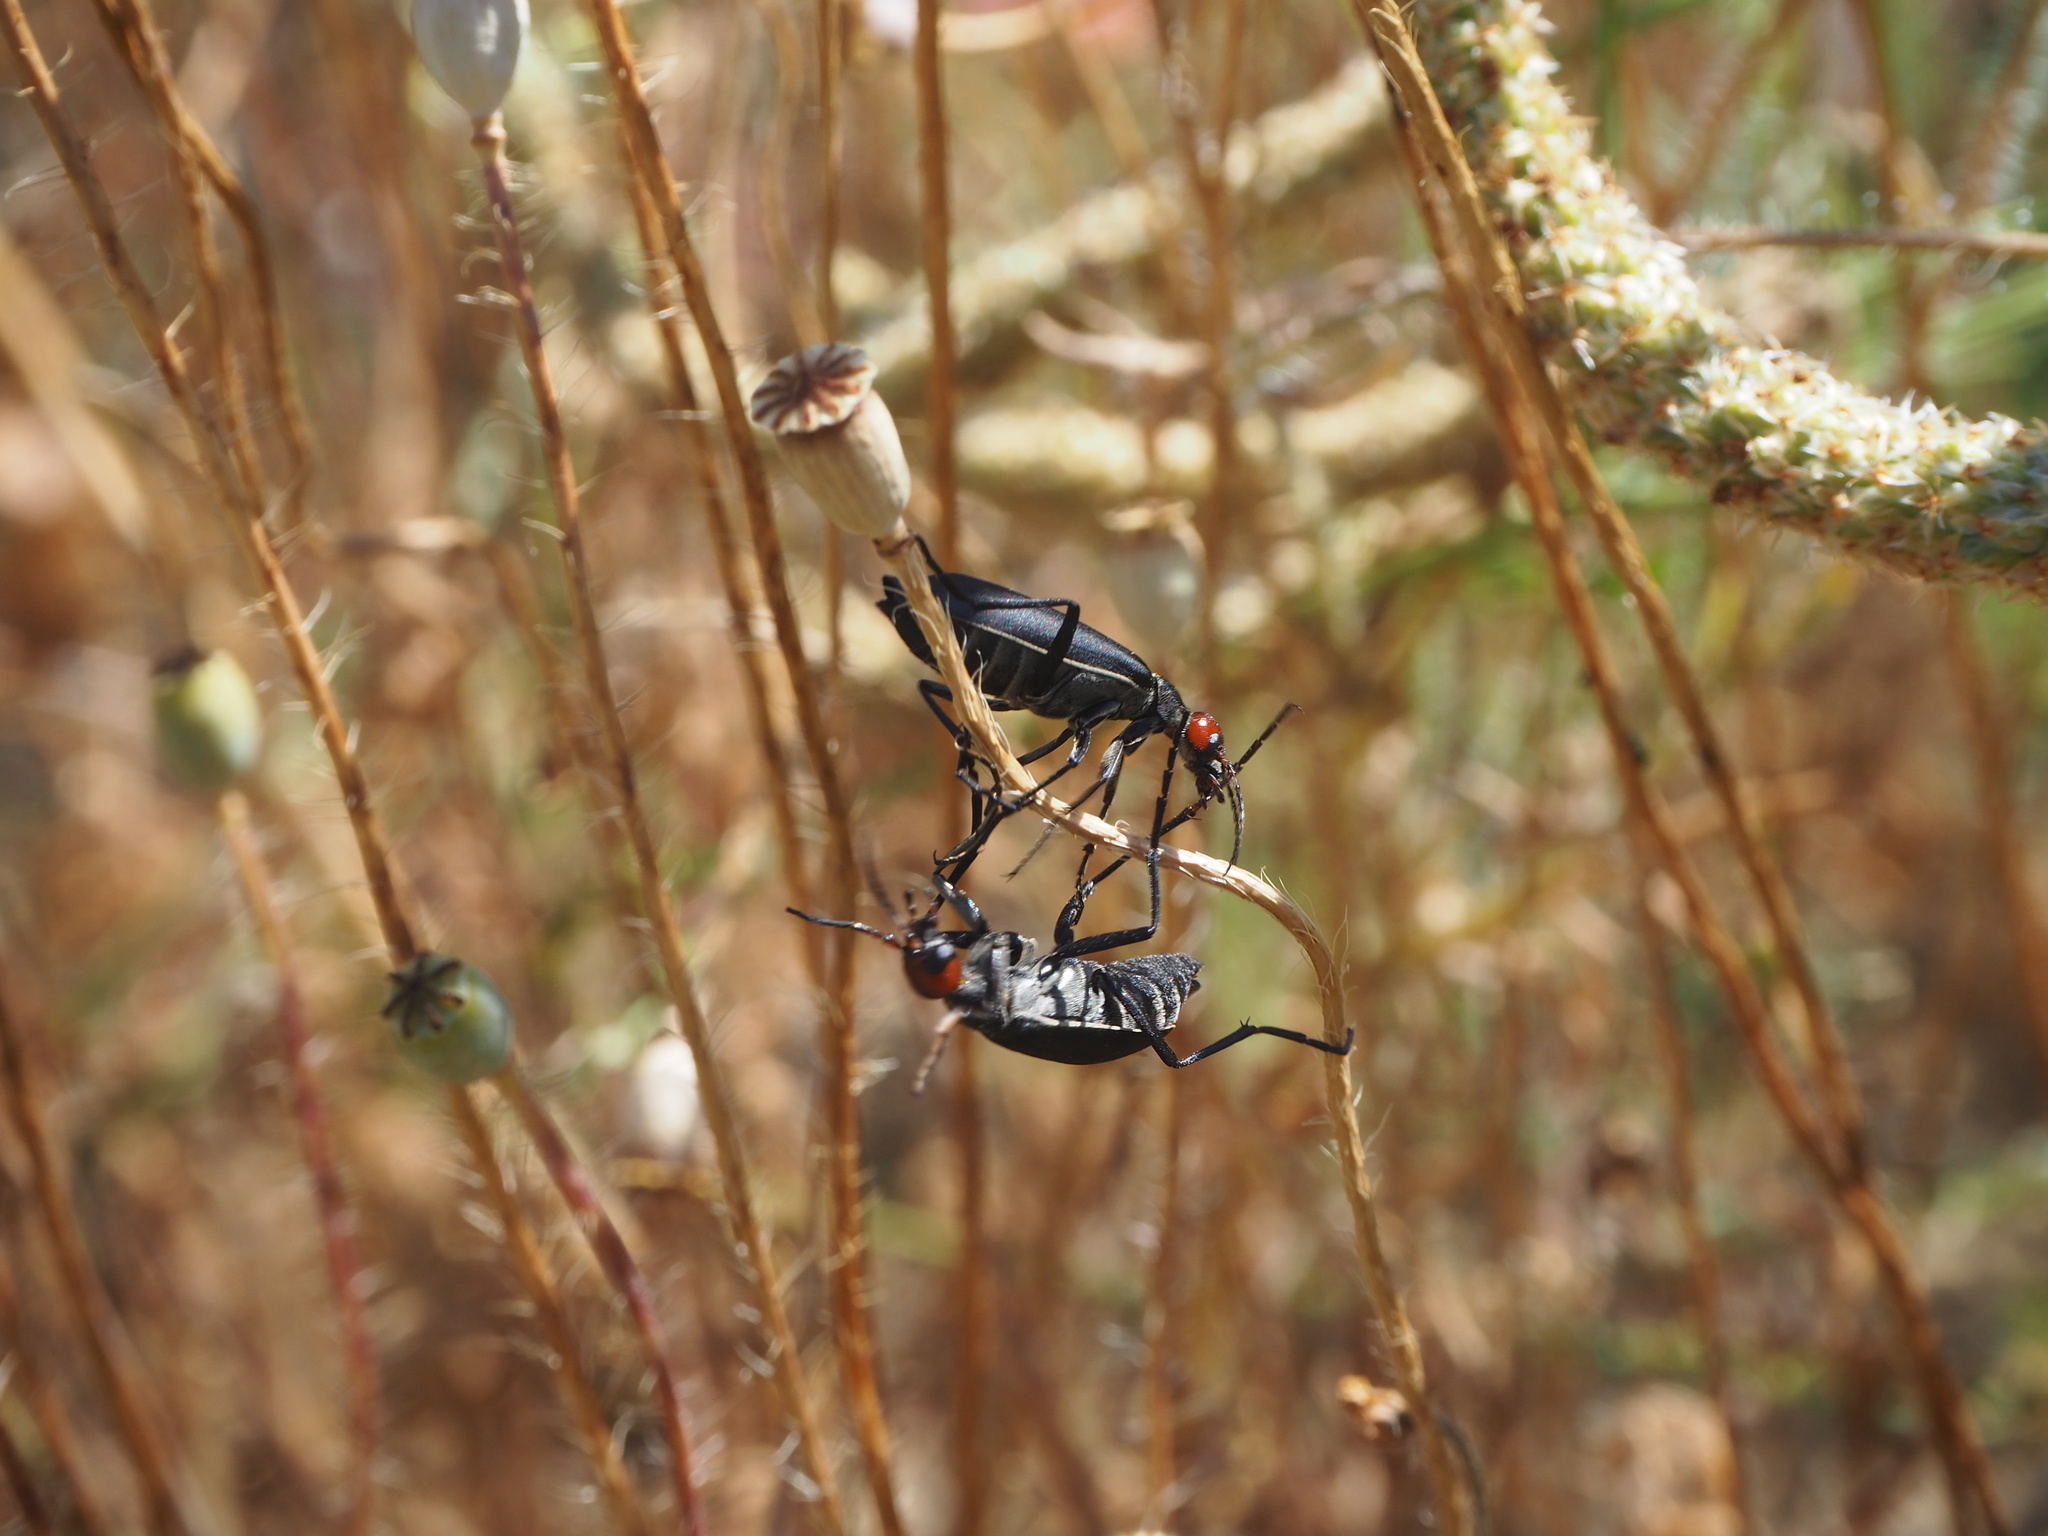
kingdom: Animalia
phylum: Arthropoda
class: Insecta
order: Coleoptera
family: Meloidae
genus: Epicauta
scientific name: Epicauta rufidorsum
